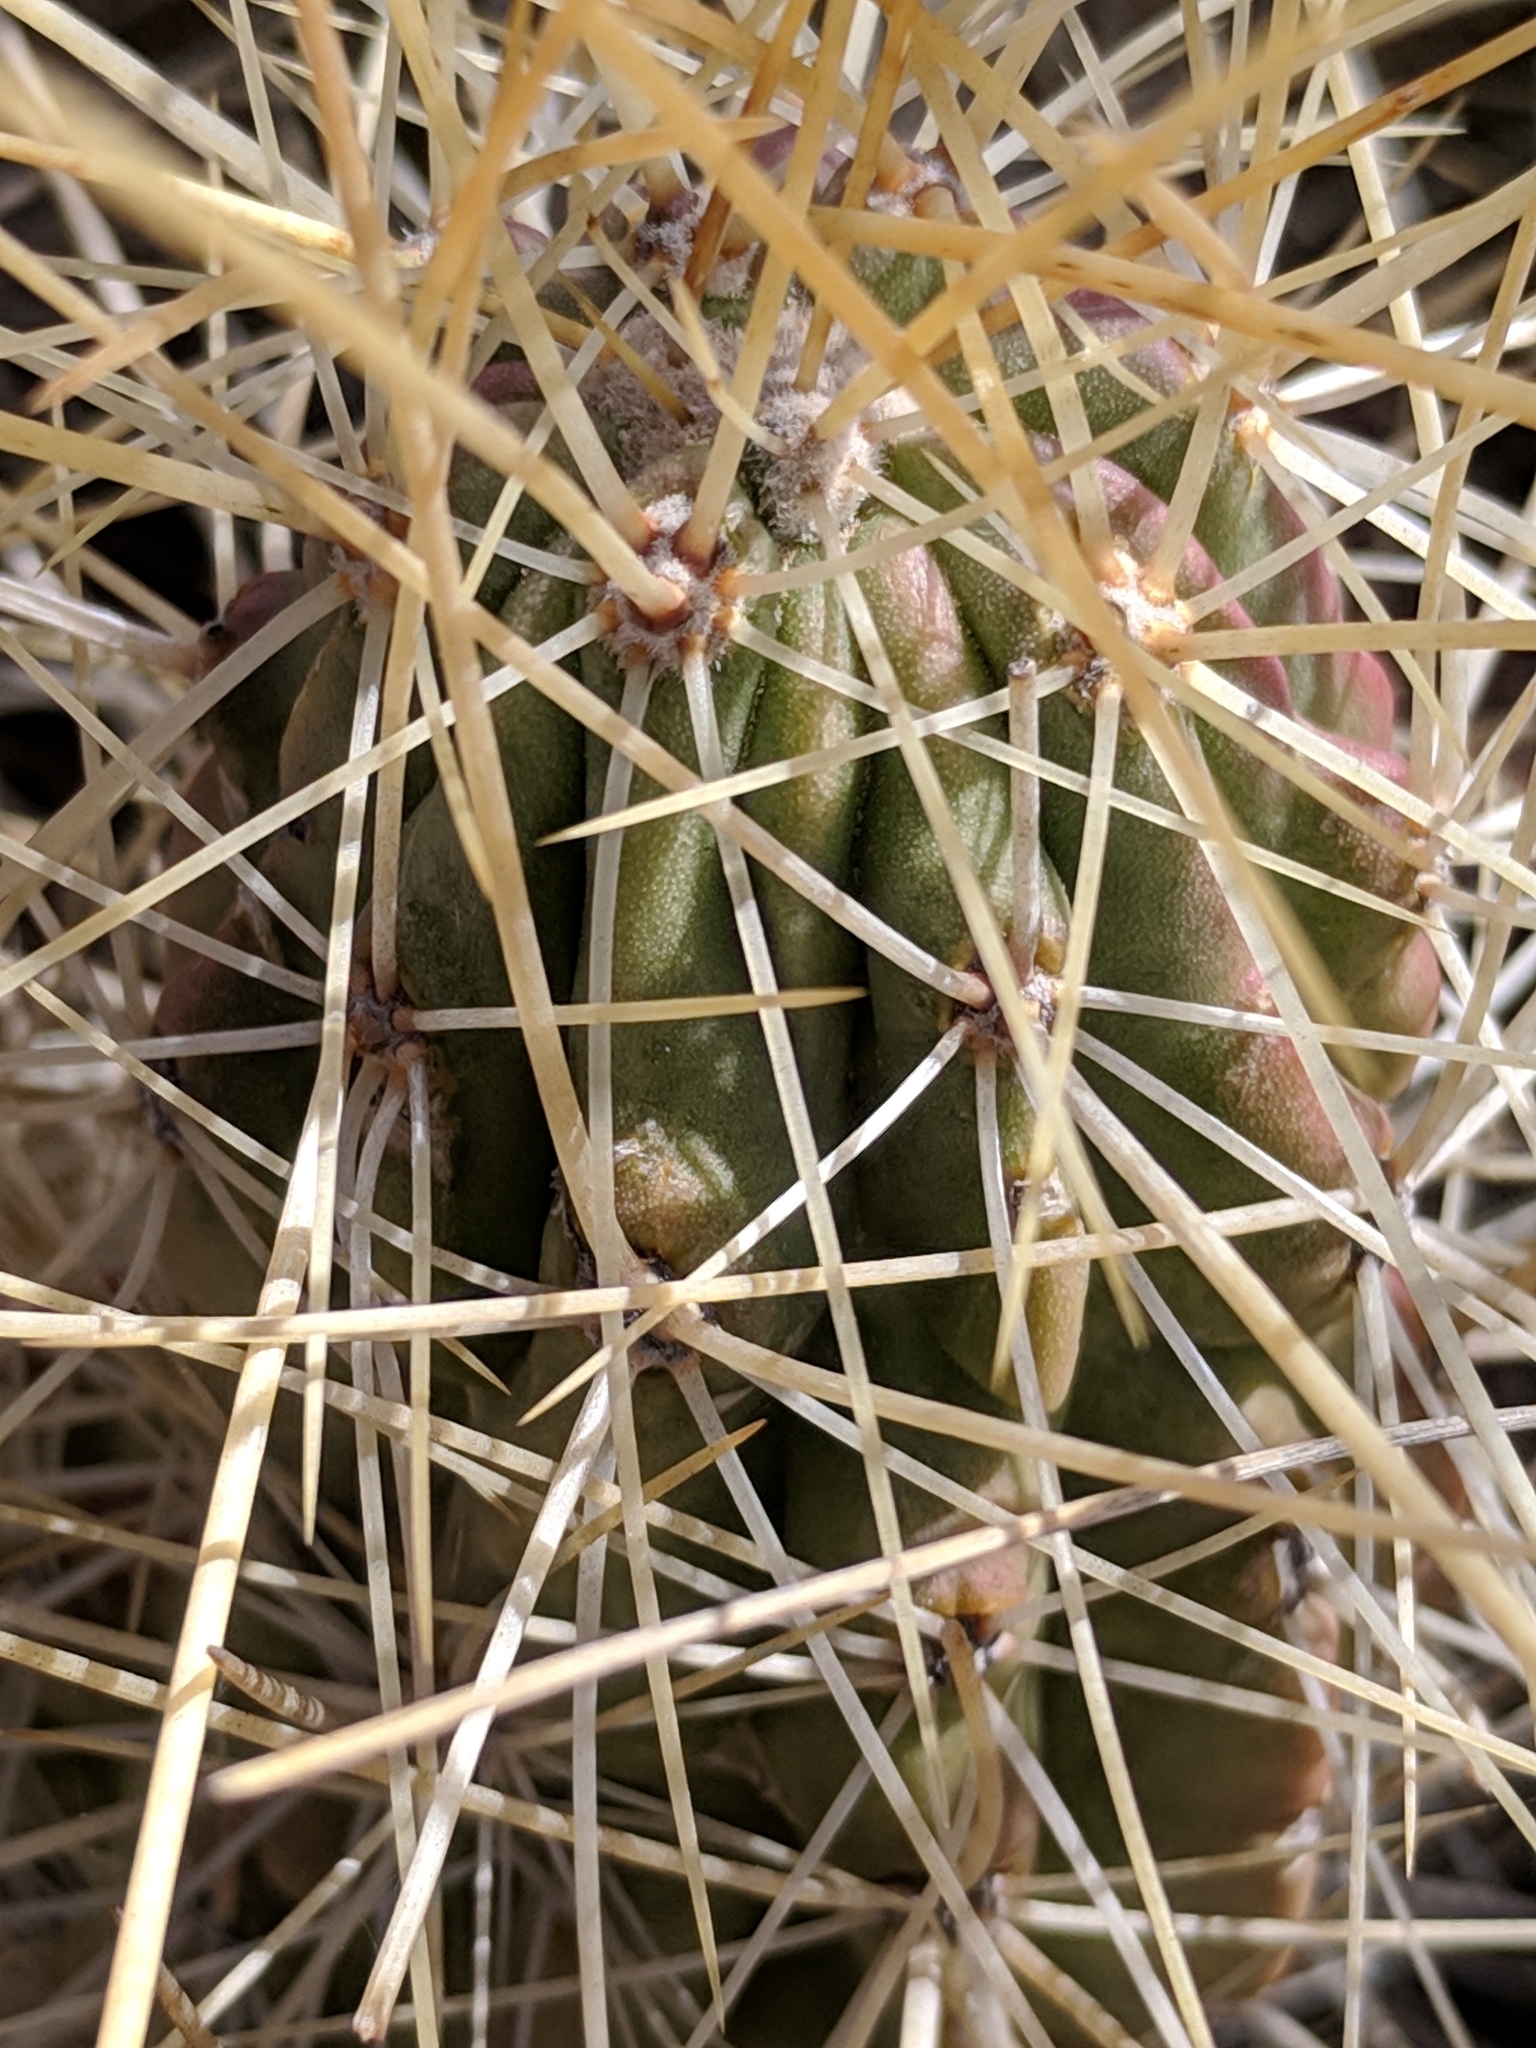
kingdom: Plantae
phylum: Tracheophyta
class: Magnoliopsida
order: Caryophyllales
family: Cactaceae
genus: Echinocereus
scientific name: Echinocereus stramineus
